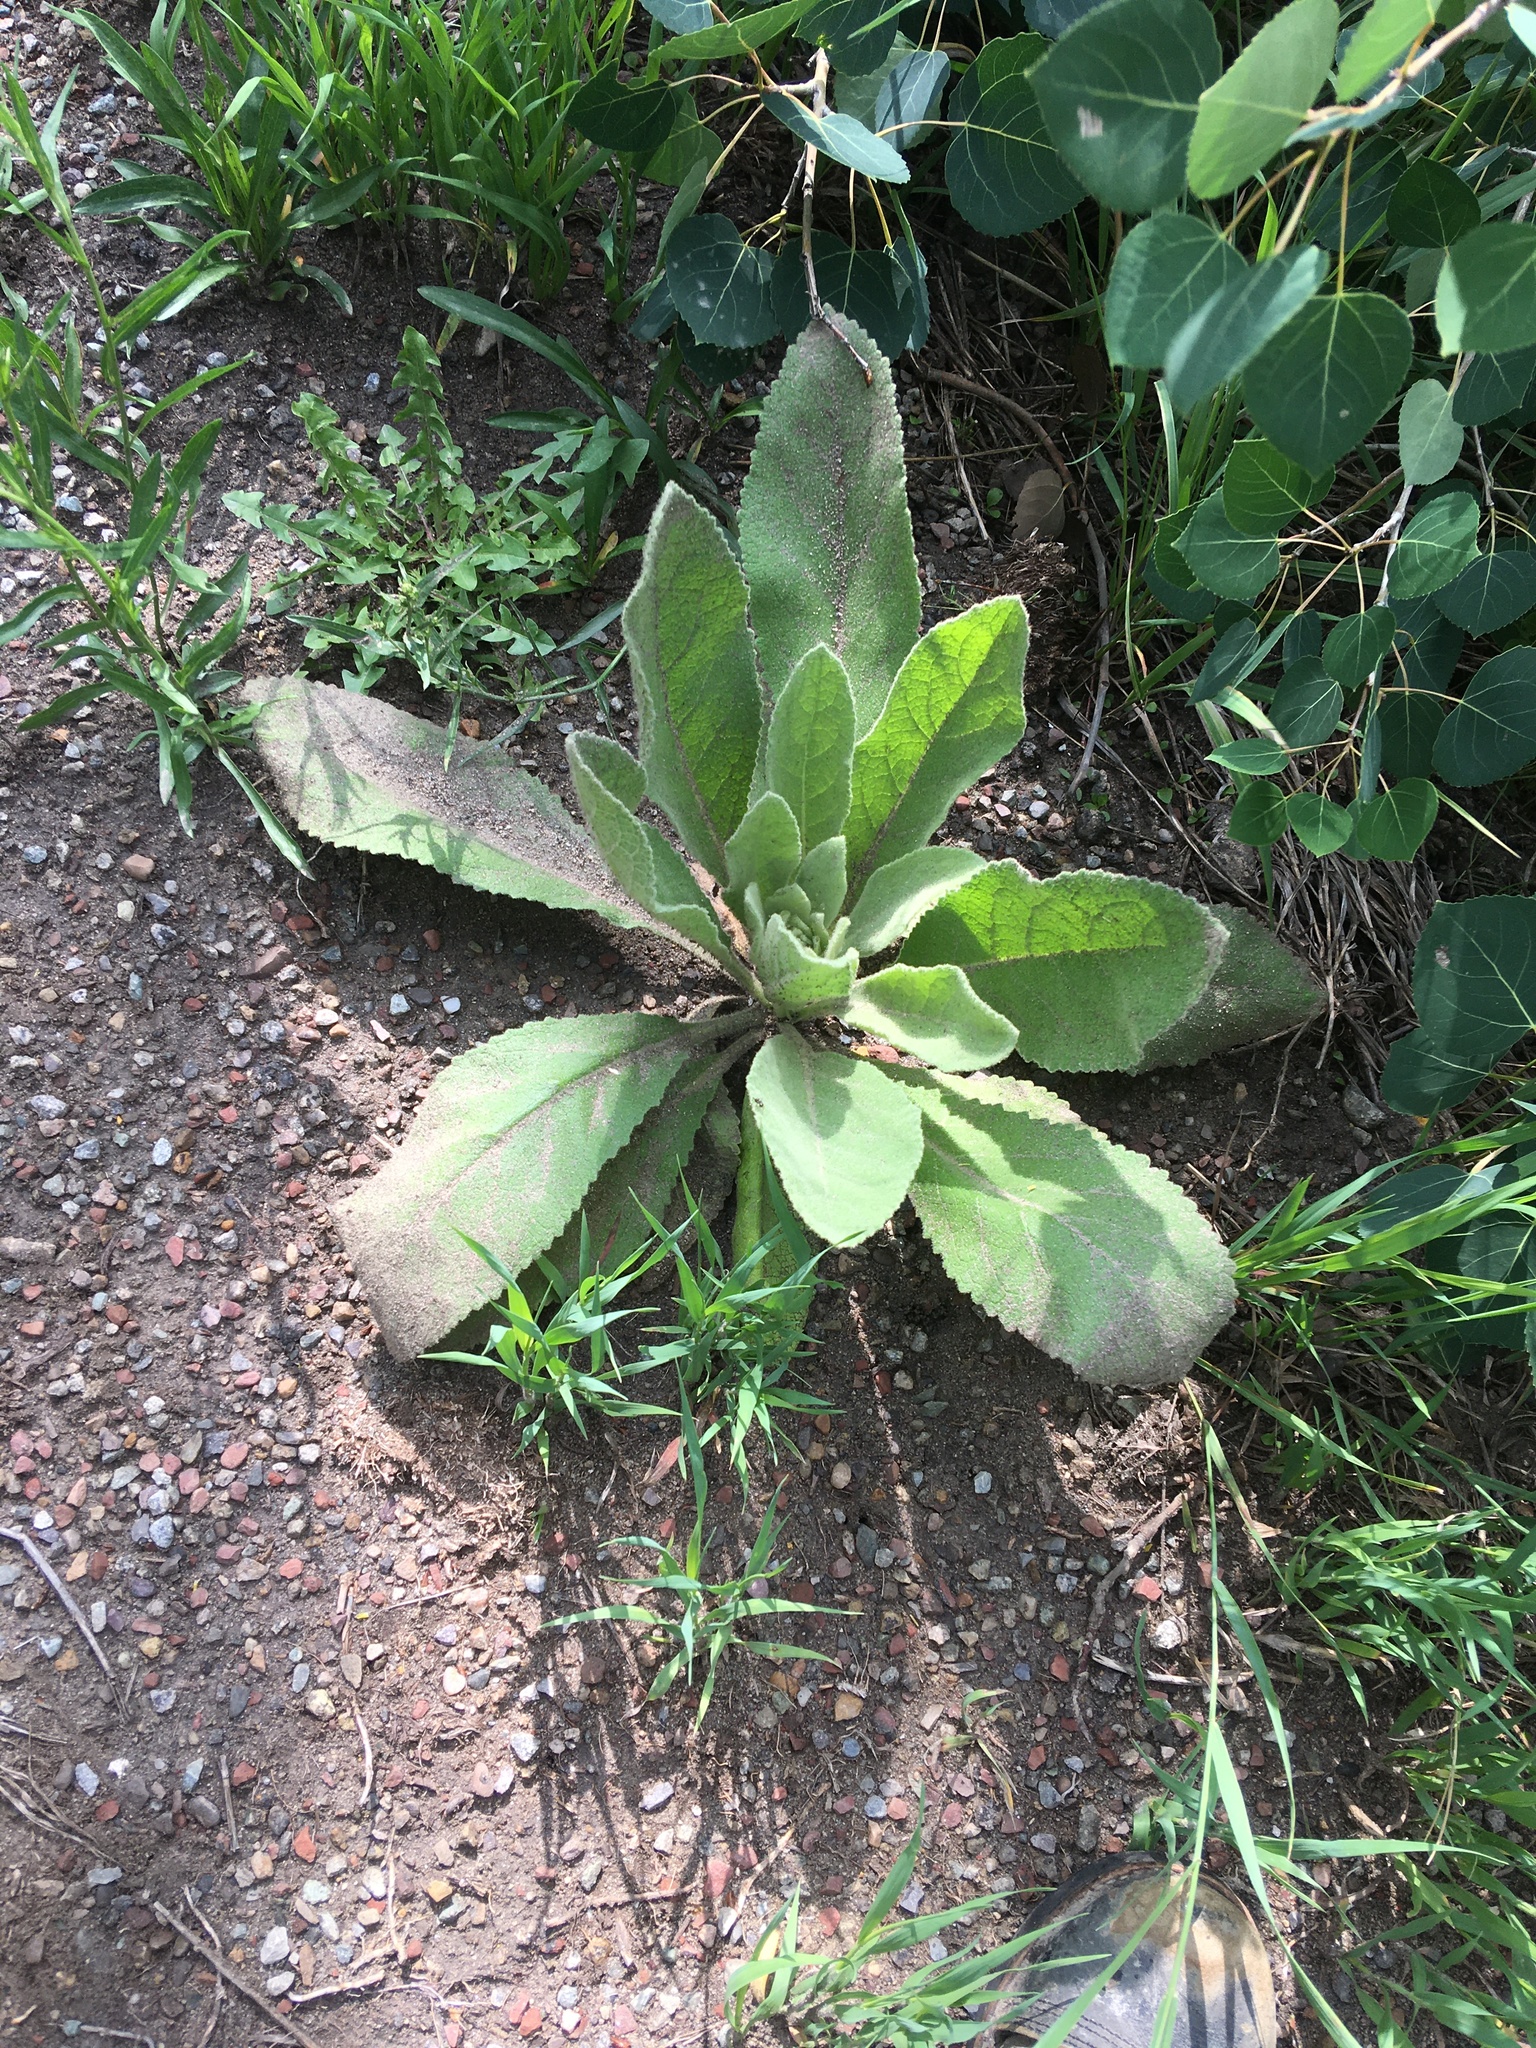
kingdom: Plantae
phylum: Tracheophyta
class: Magnoliopsida
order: Lamiales
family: Scrophulariaceae
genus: Verbascum
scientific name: Verbascum thapsus
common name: Common mullein
